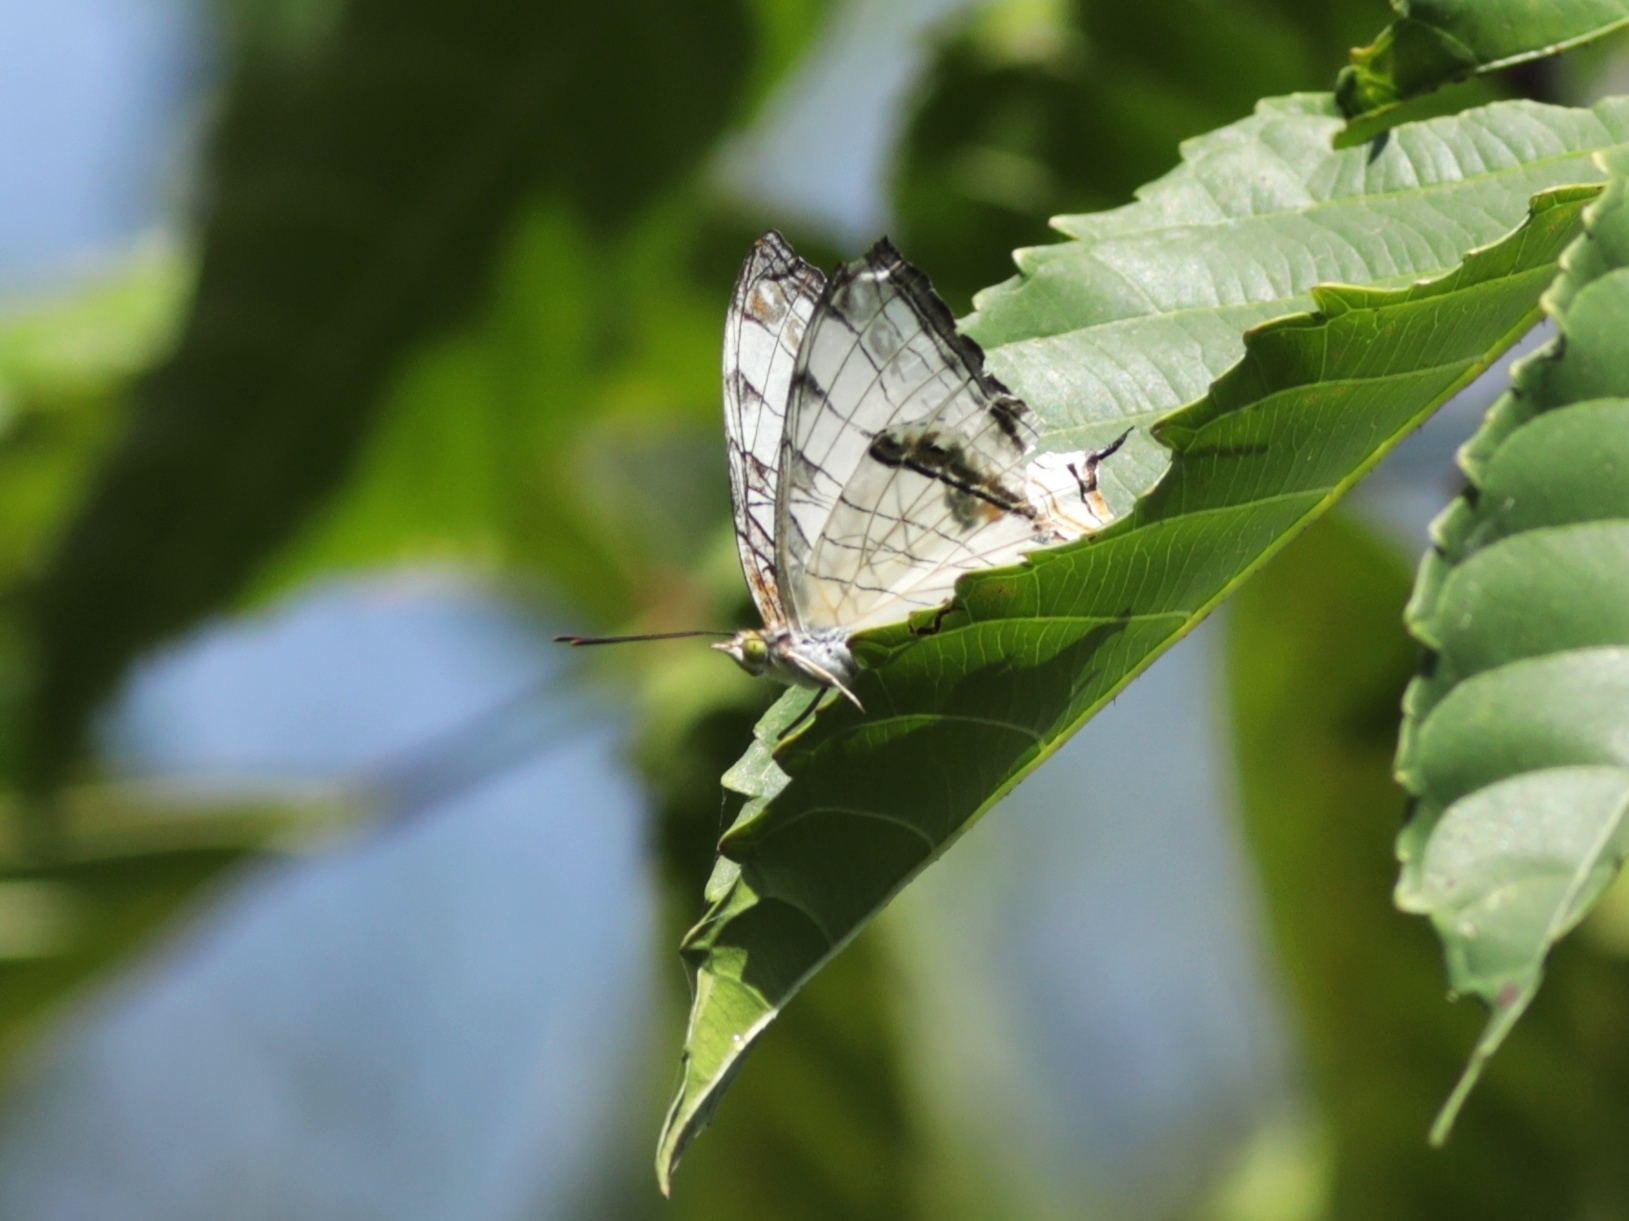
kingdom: Animalia
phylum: Arthropoda
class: Insecta
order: Lepidoptera
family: Nymphalidae
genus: Cyrestis
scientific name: Cyrestis thyodamas
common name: Common mapwing
